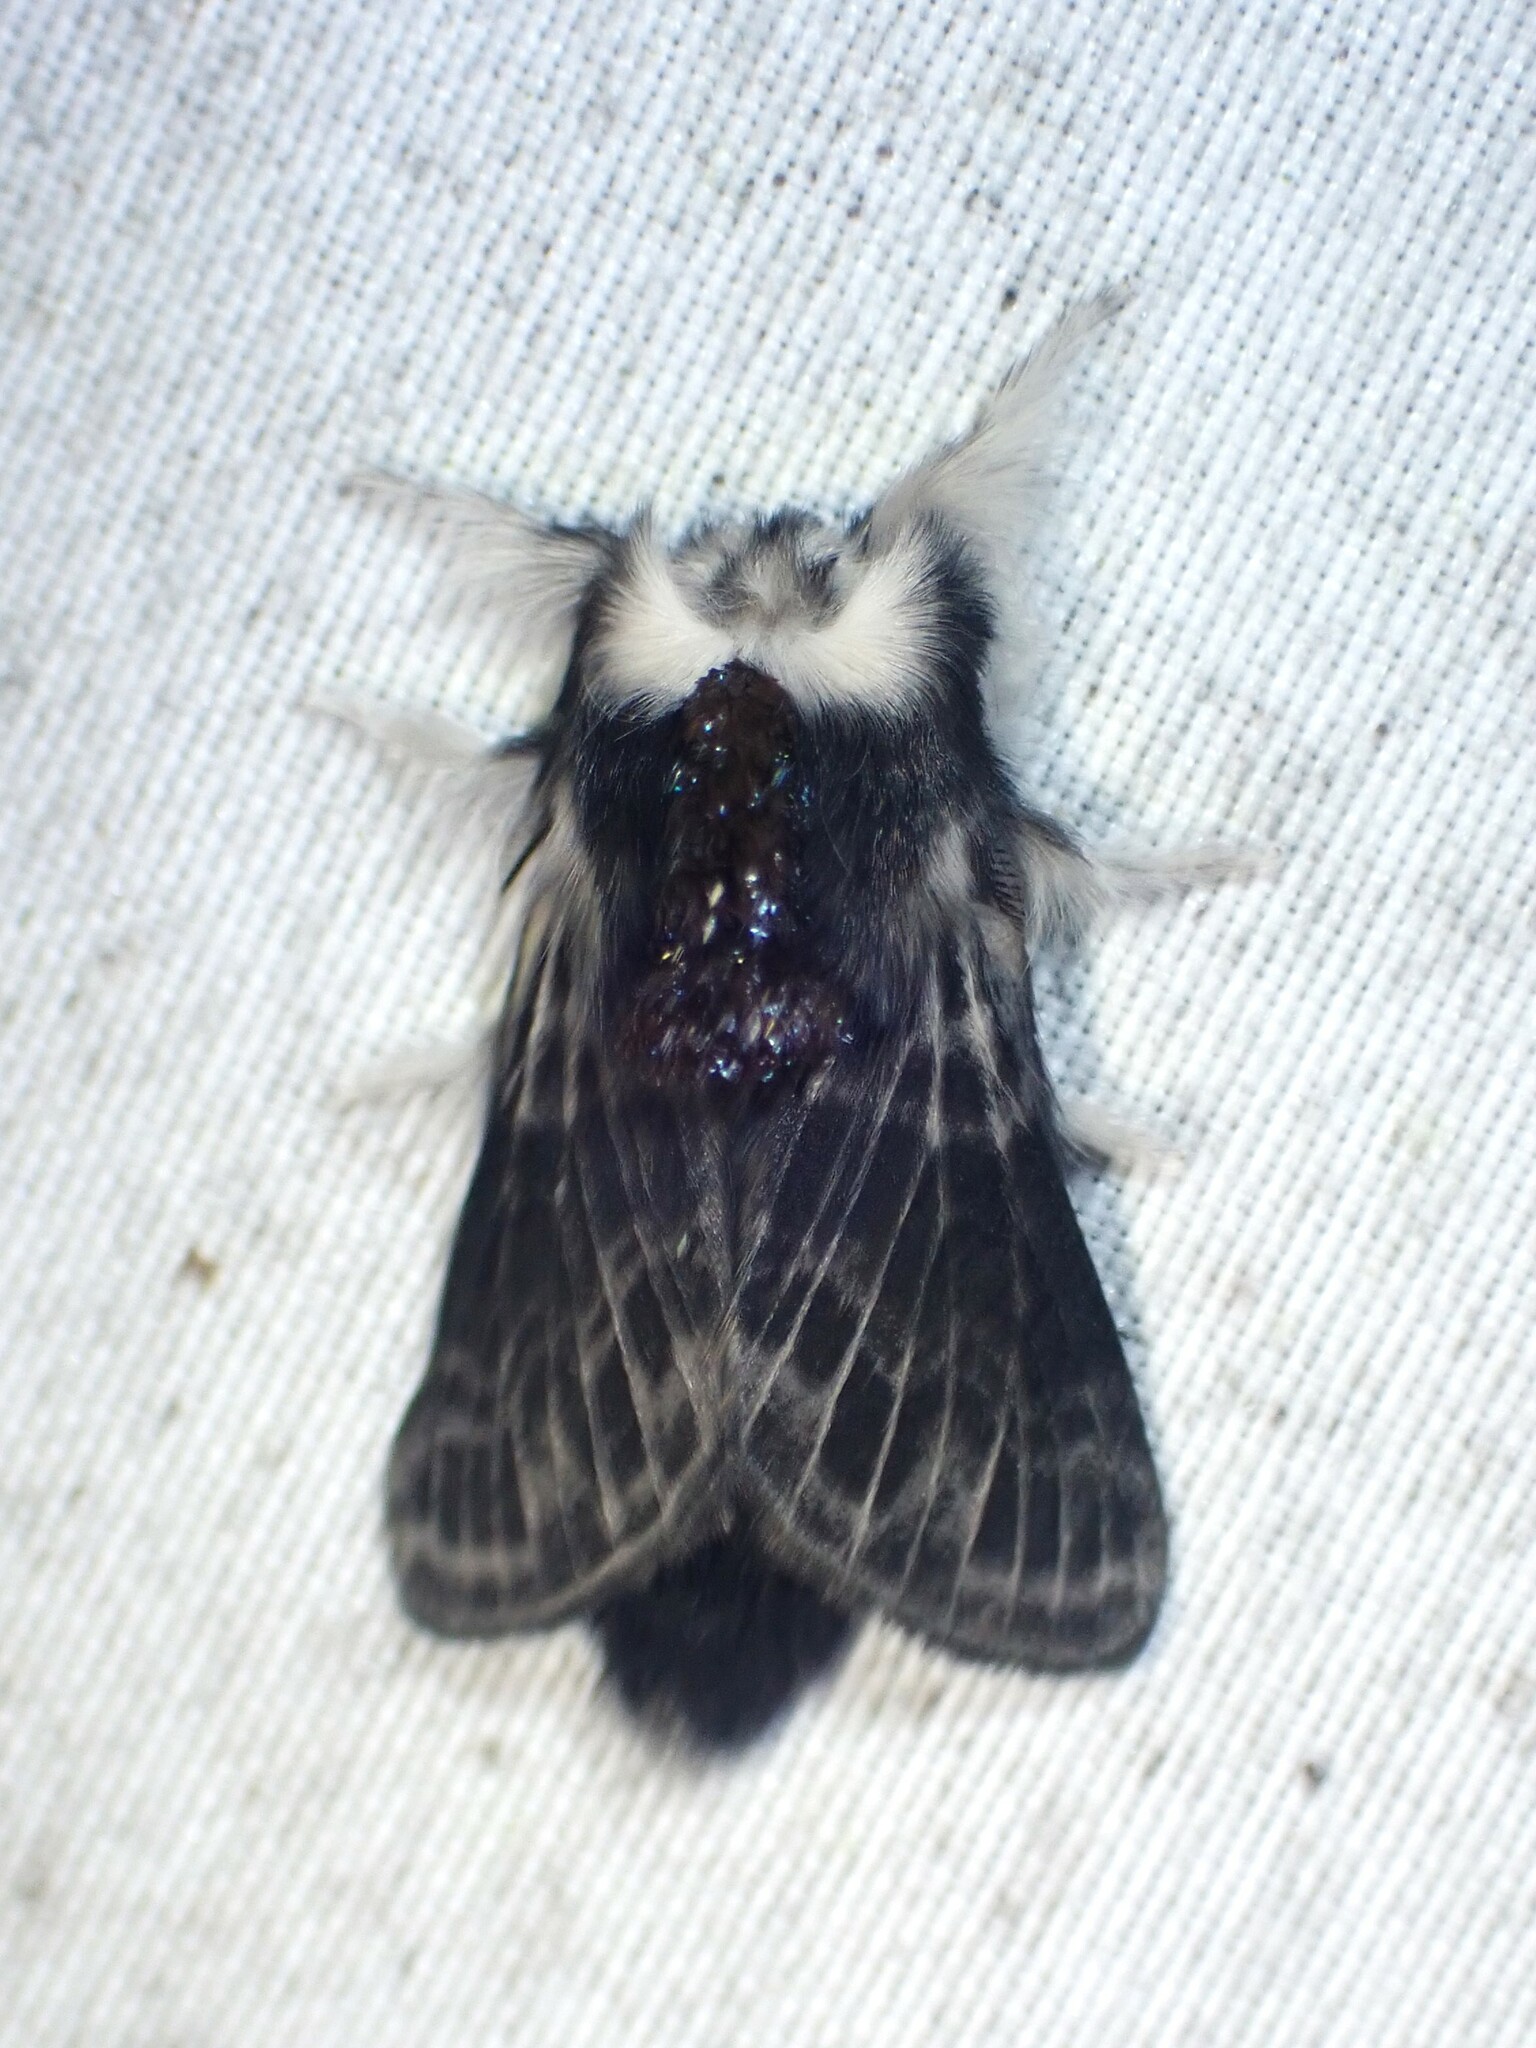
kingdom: Animalia
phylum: Arthropoda
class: Insecta
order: Lepidoptera
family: Lasiocampidae
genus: Tolype
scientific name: Tolype laricis
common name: Larch tolype moth
